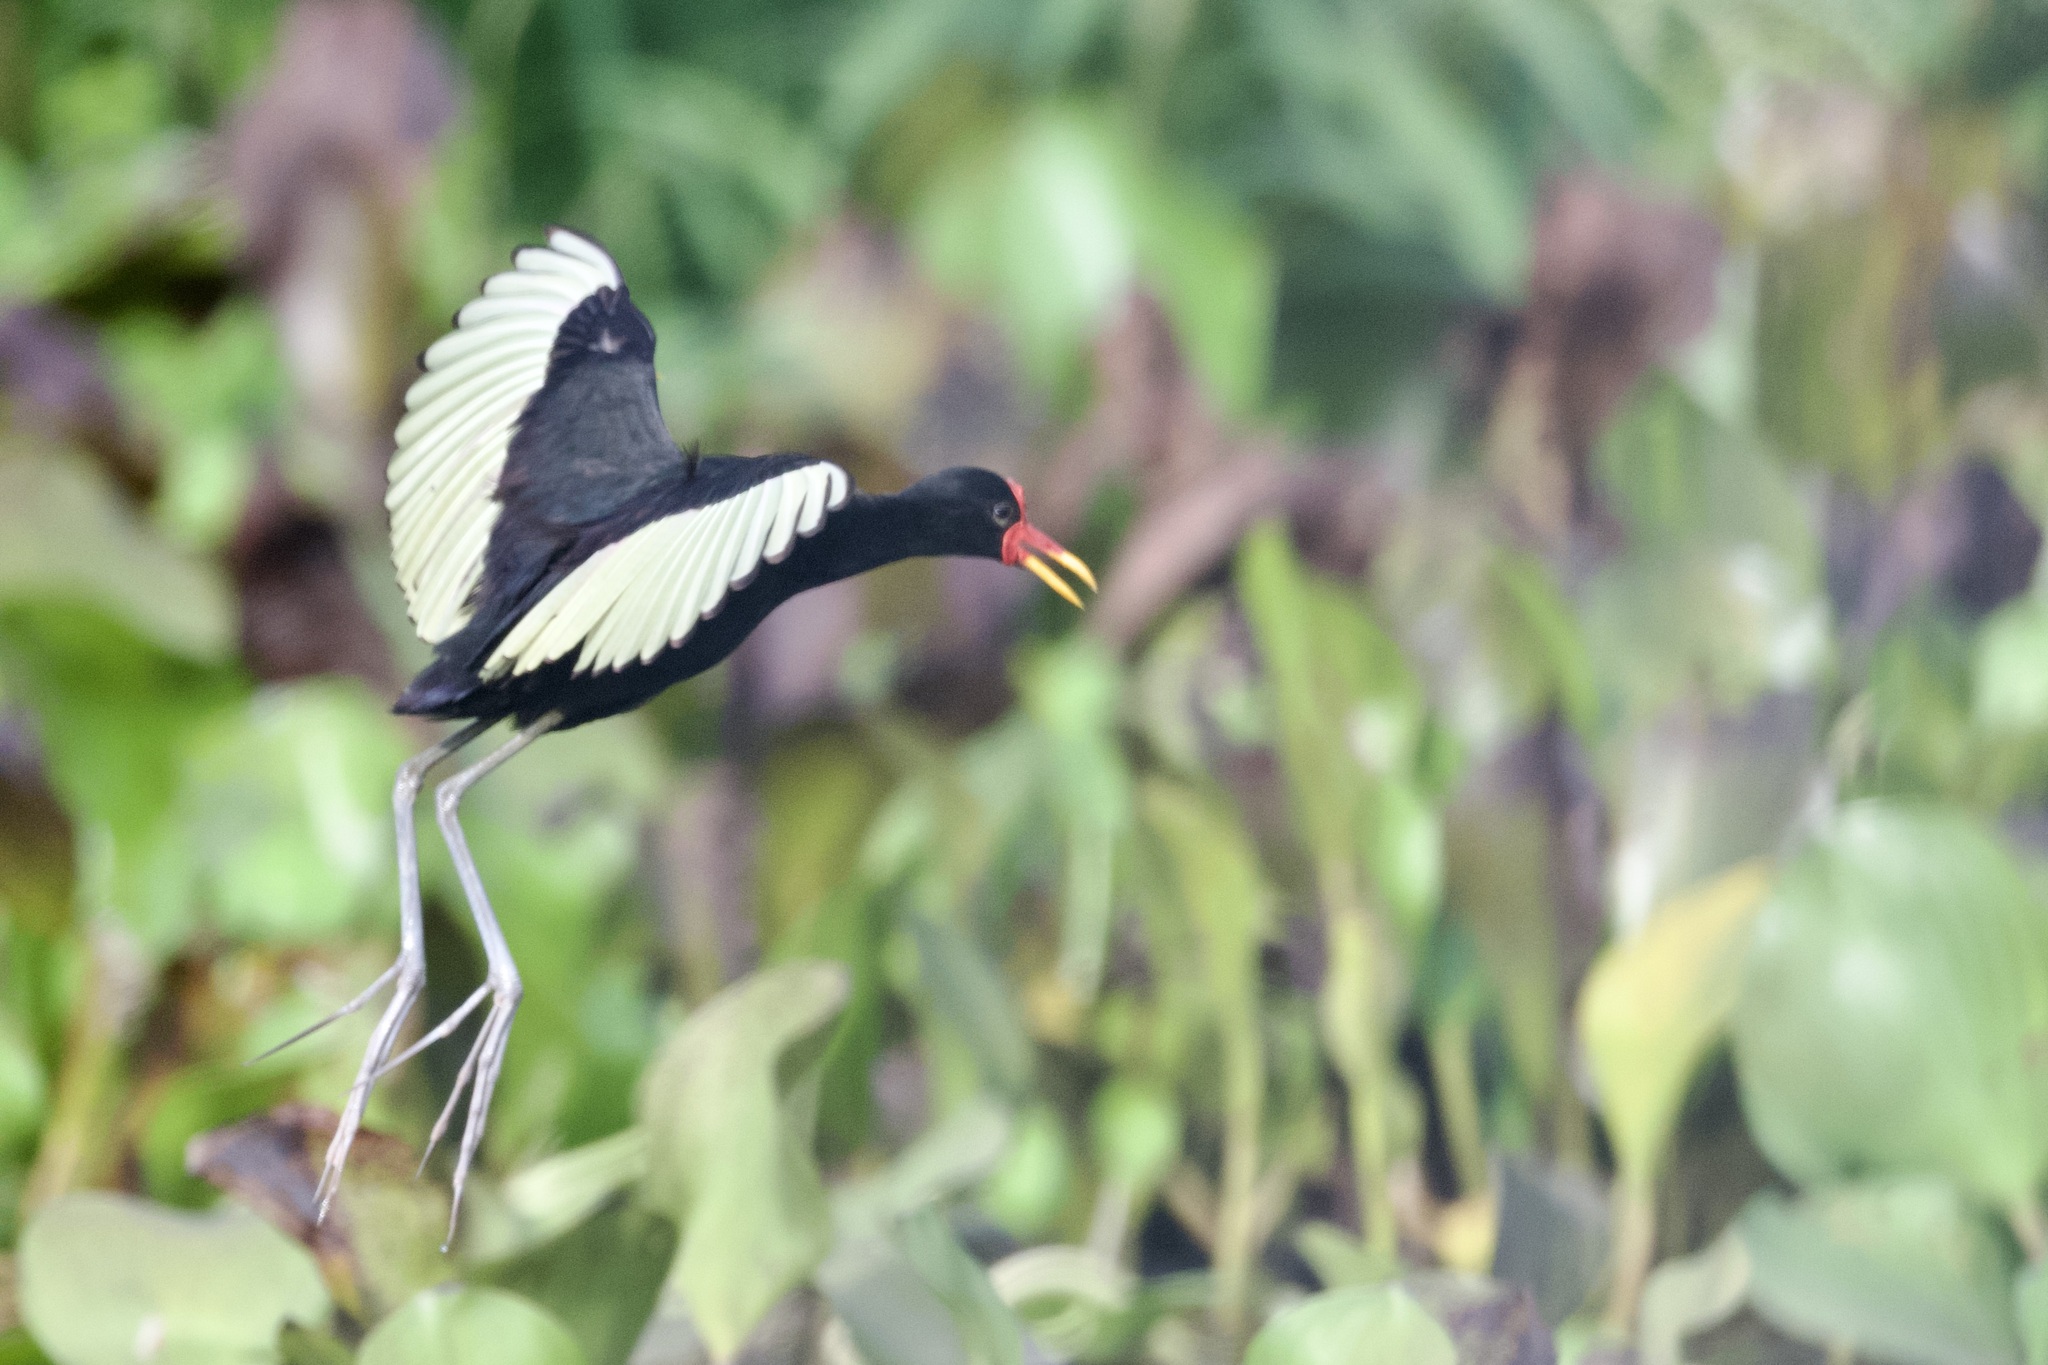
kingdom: Animalia
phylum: Chordata
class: Aves
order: Charadriiformes
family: Jacanidae
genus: Jacana
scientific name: Jacana jacana
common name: Wattled jacana
